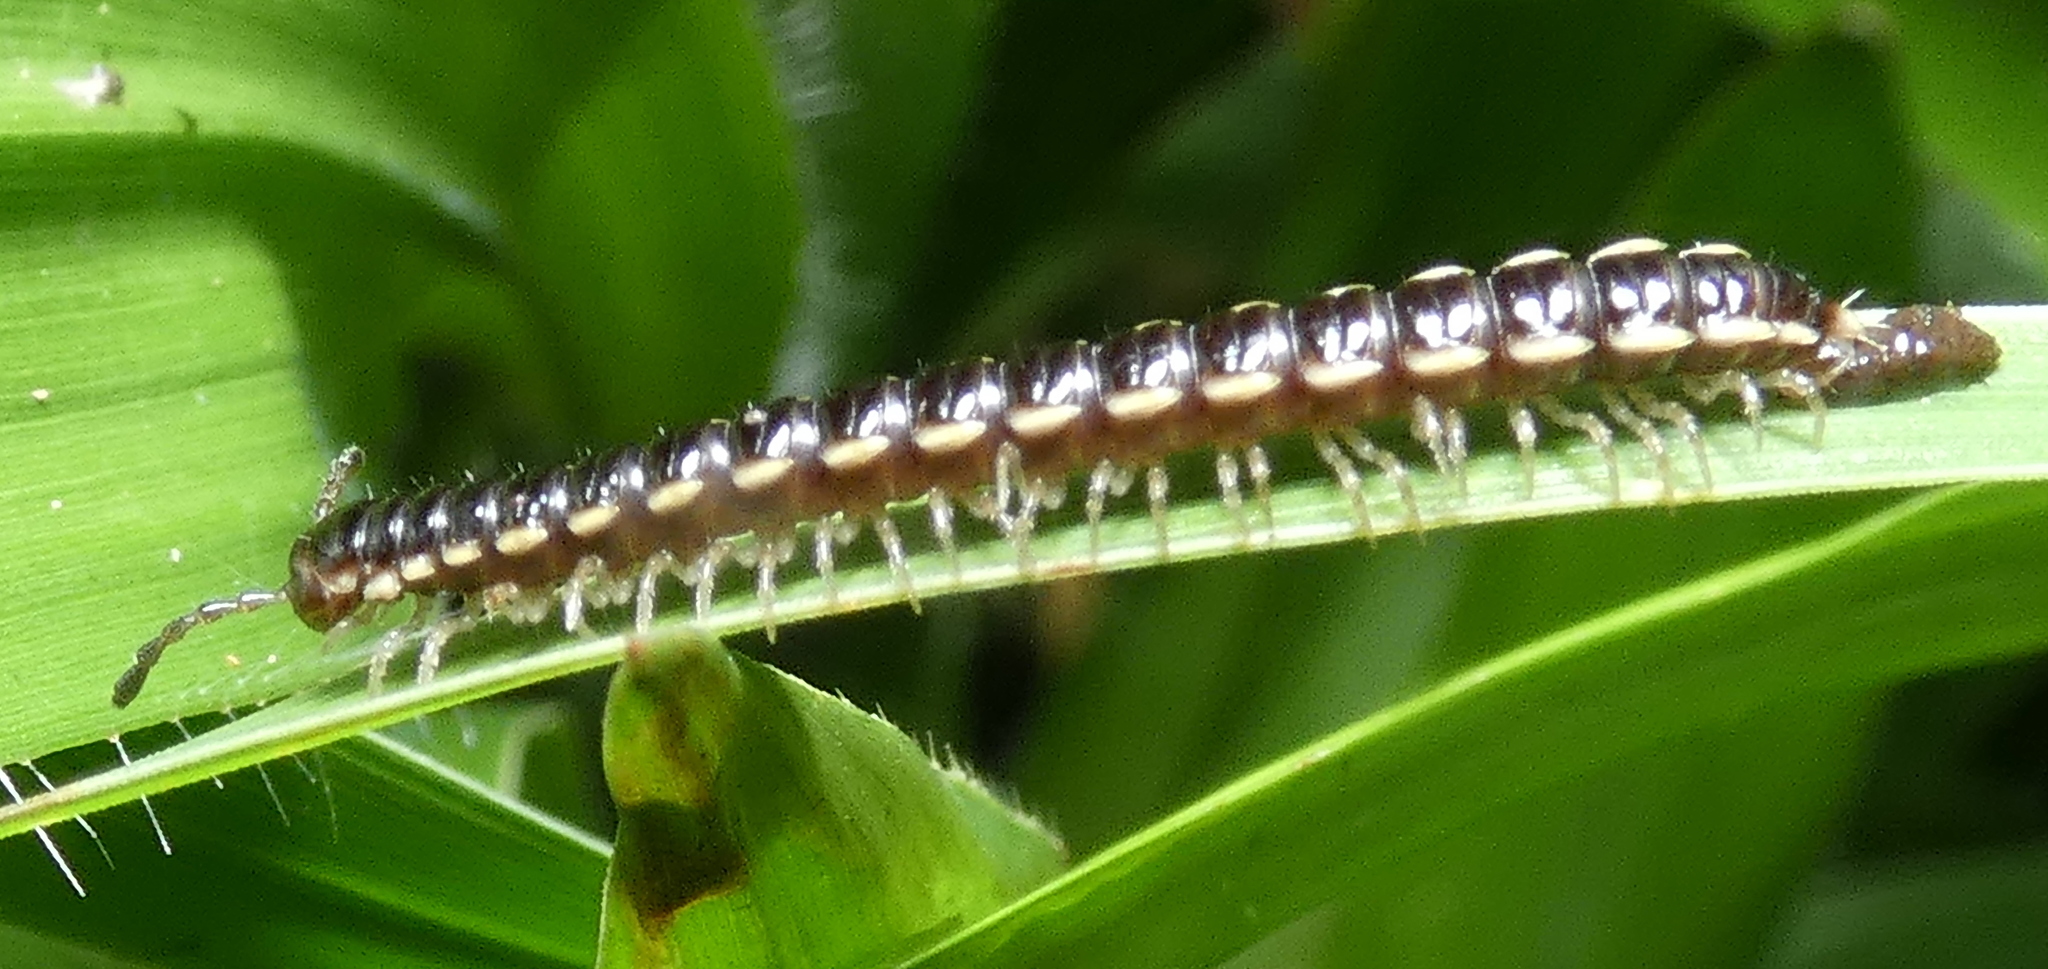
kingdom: Animalia
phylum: Arthropoda
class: Diplopoda
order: Polydesmida
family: Paradoxosomatidae
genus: Orthomorpha
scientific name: Orthomorpha coarctata
